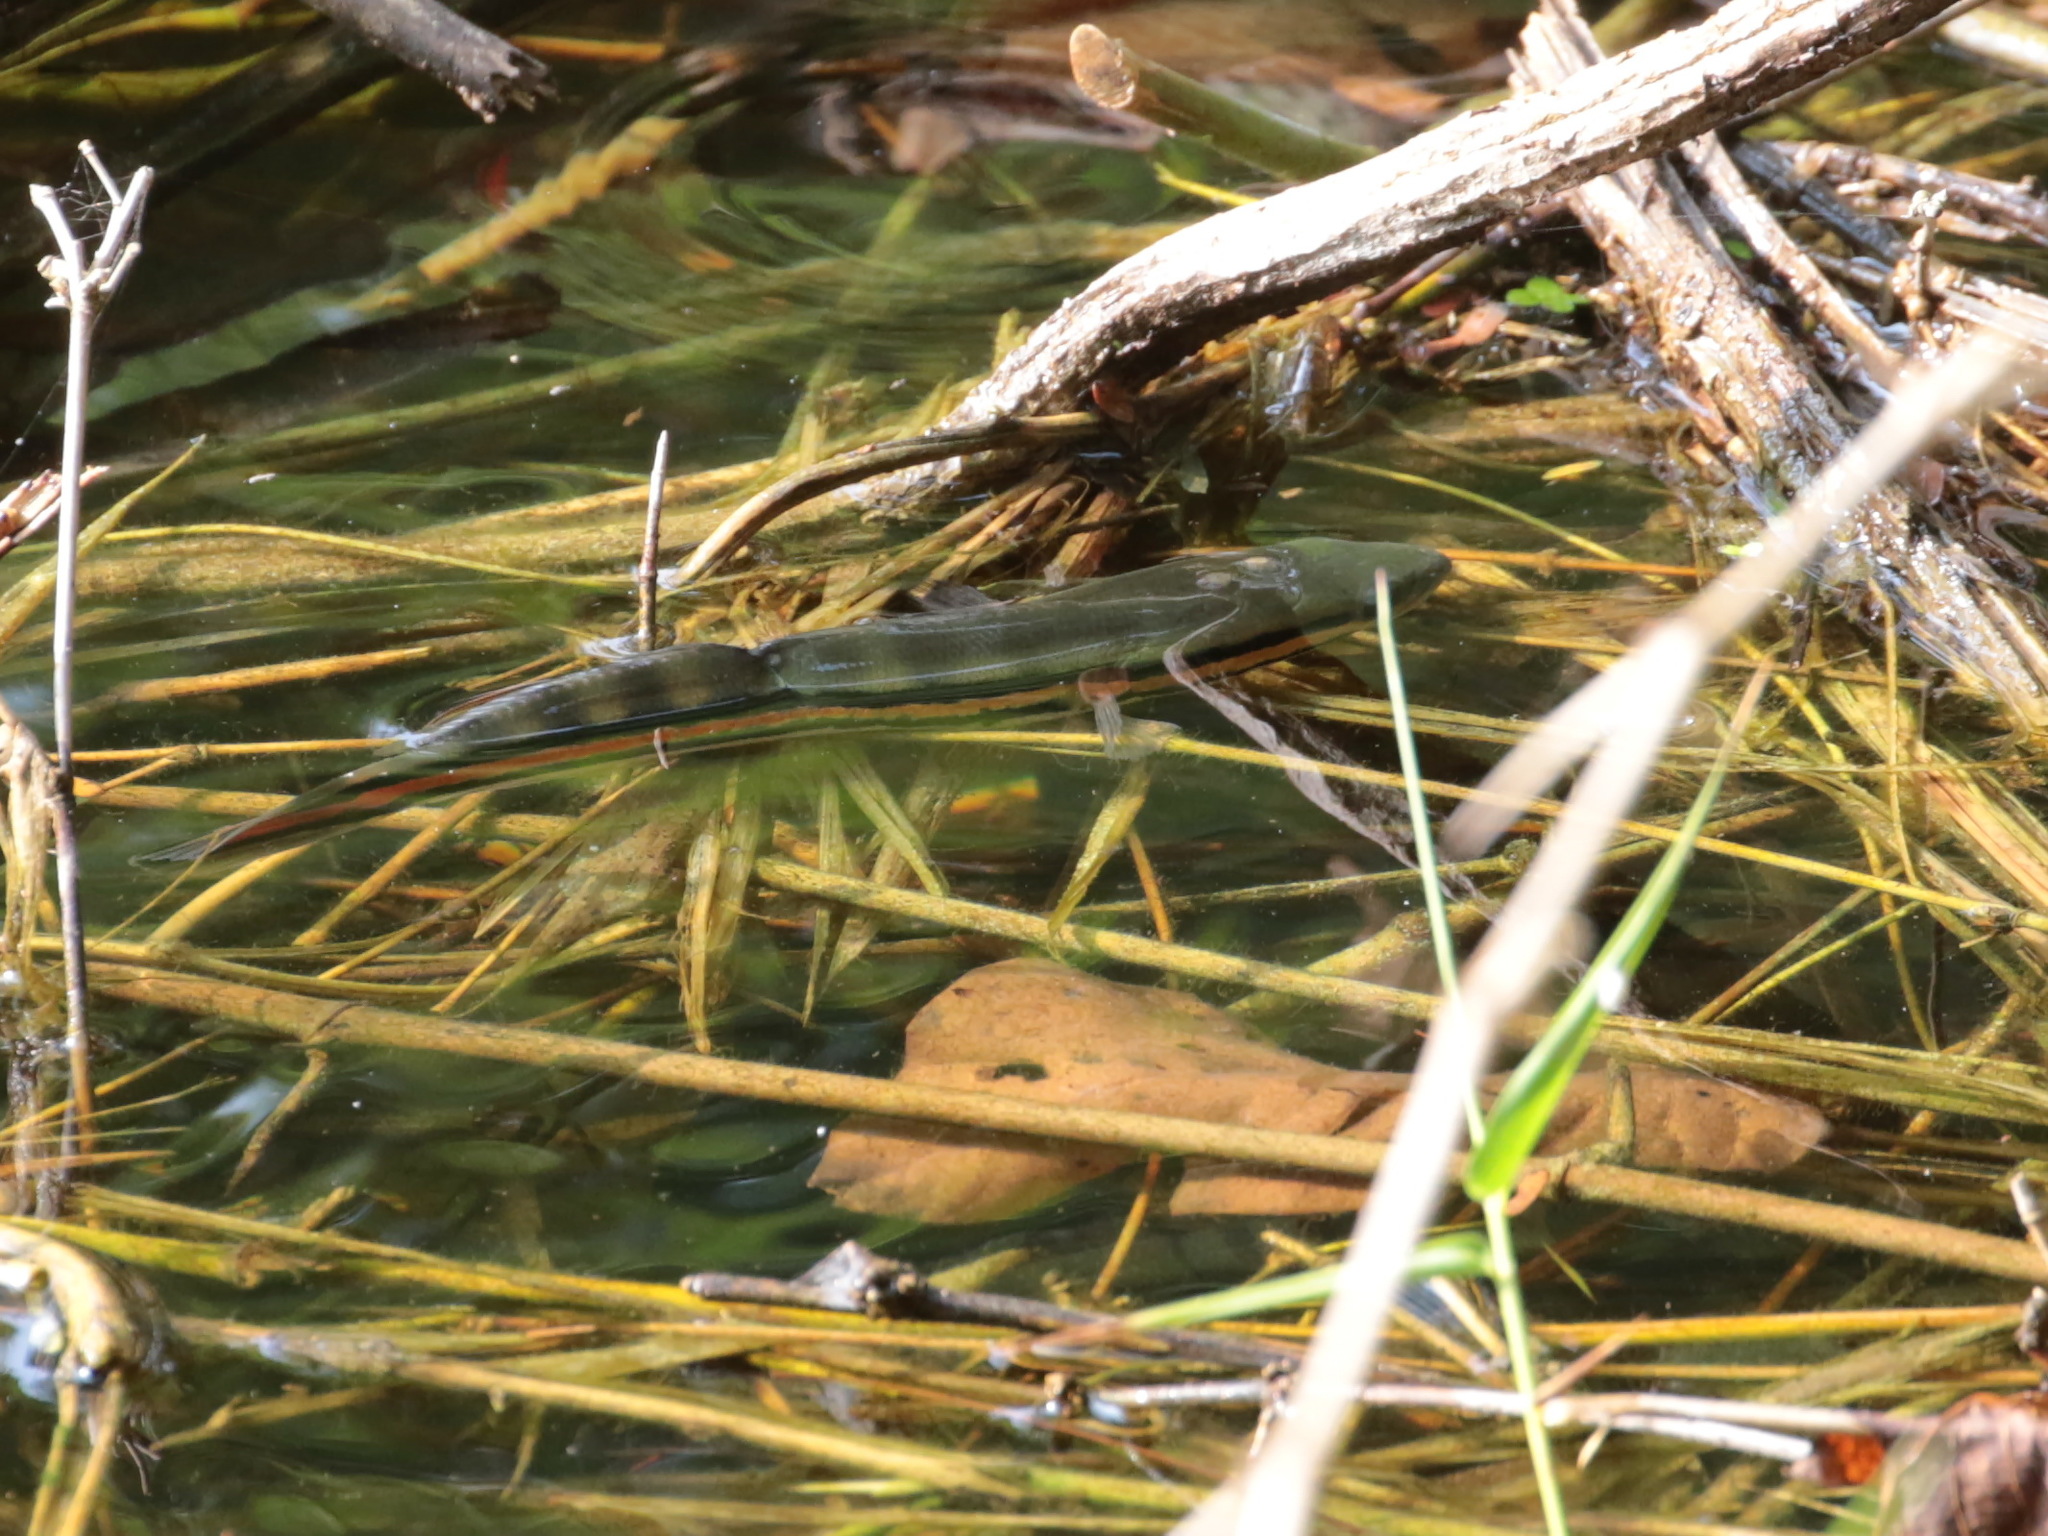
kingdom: Animalia
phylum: Chordata
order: Perciformes
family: Channidae
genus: Channa
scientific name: Channa micropeltes
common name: Giant snakehead
